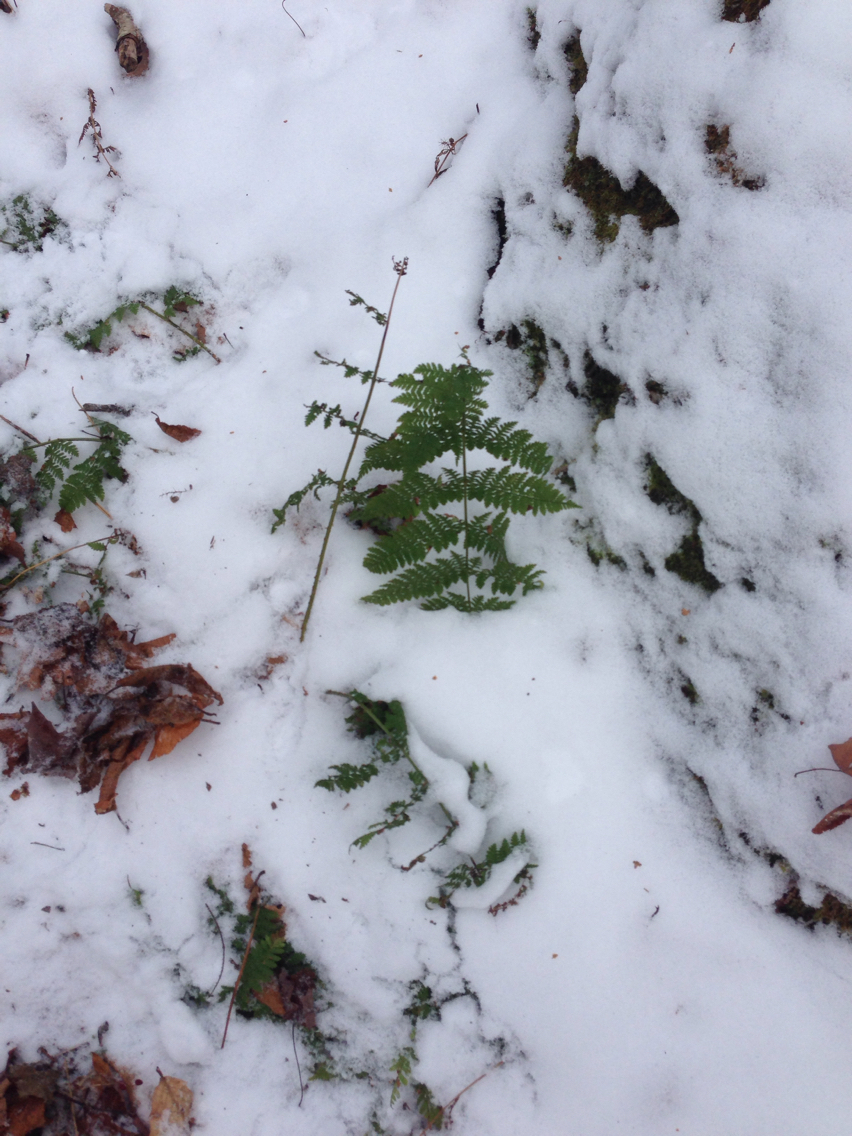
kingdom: Plantae
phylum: Tracheophyta
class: Polypodiopsida
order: Polypodiales
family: Dryopteridaceae
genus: Dryopteris
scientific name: Dryopteris intermedia
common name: Evergreen wood fern
